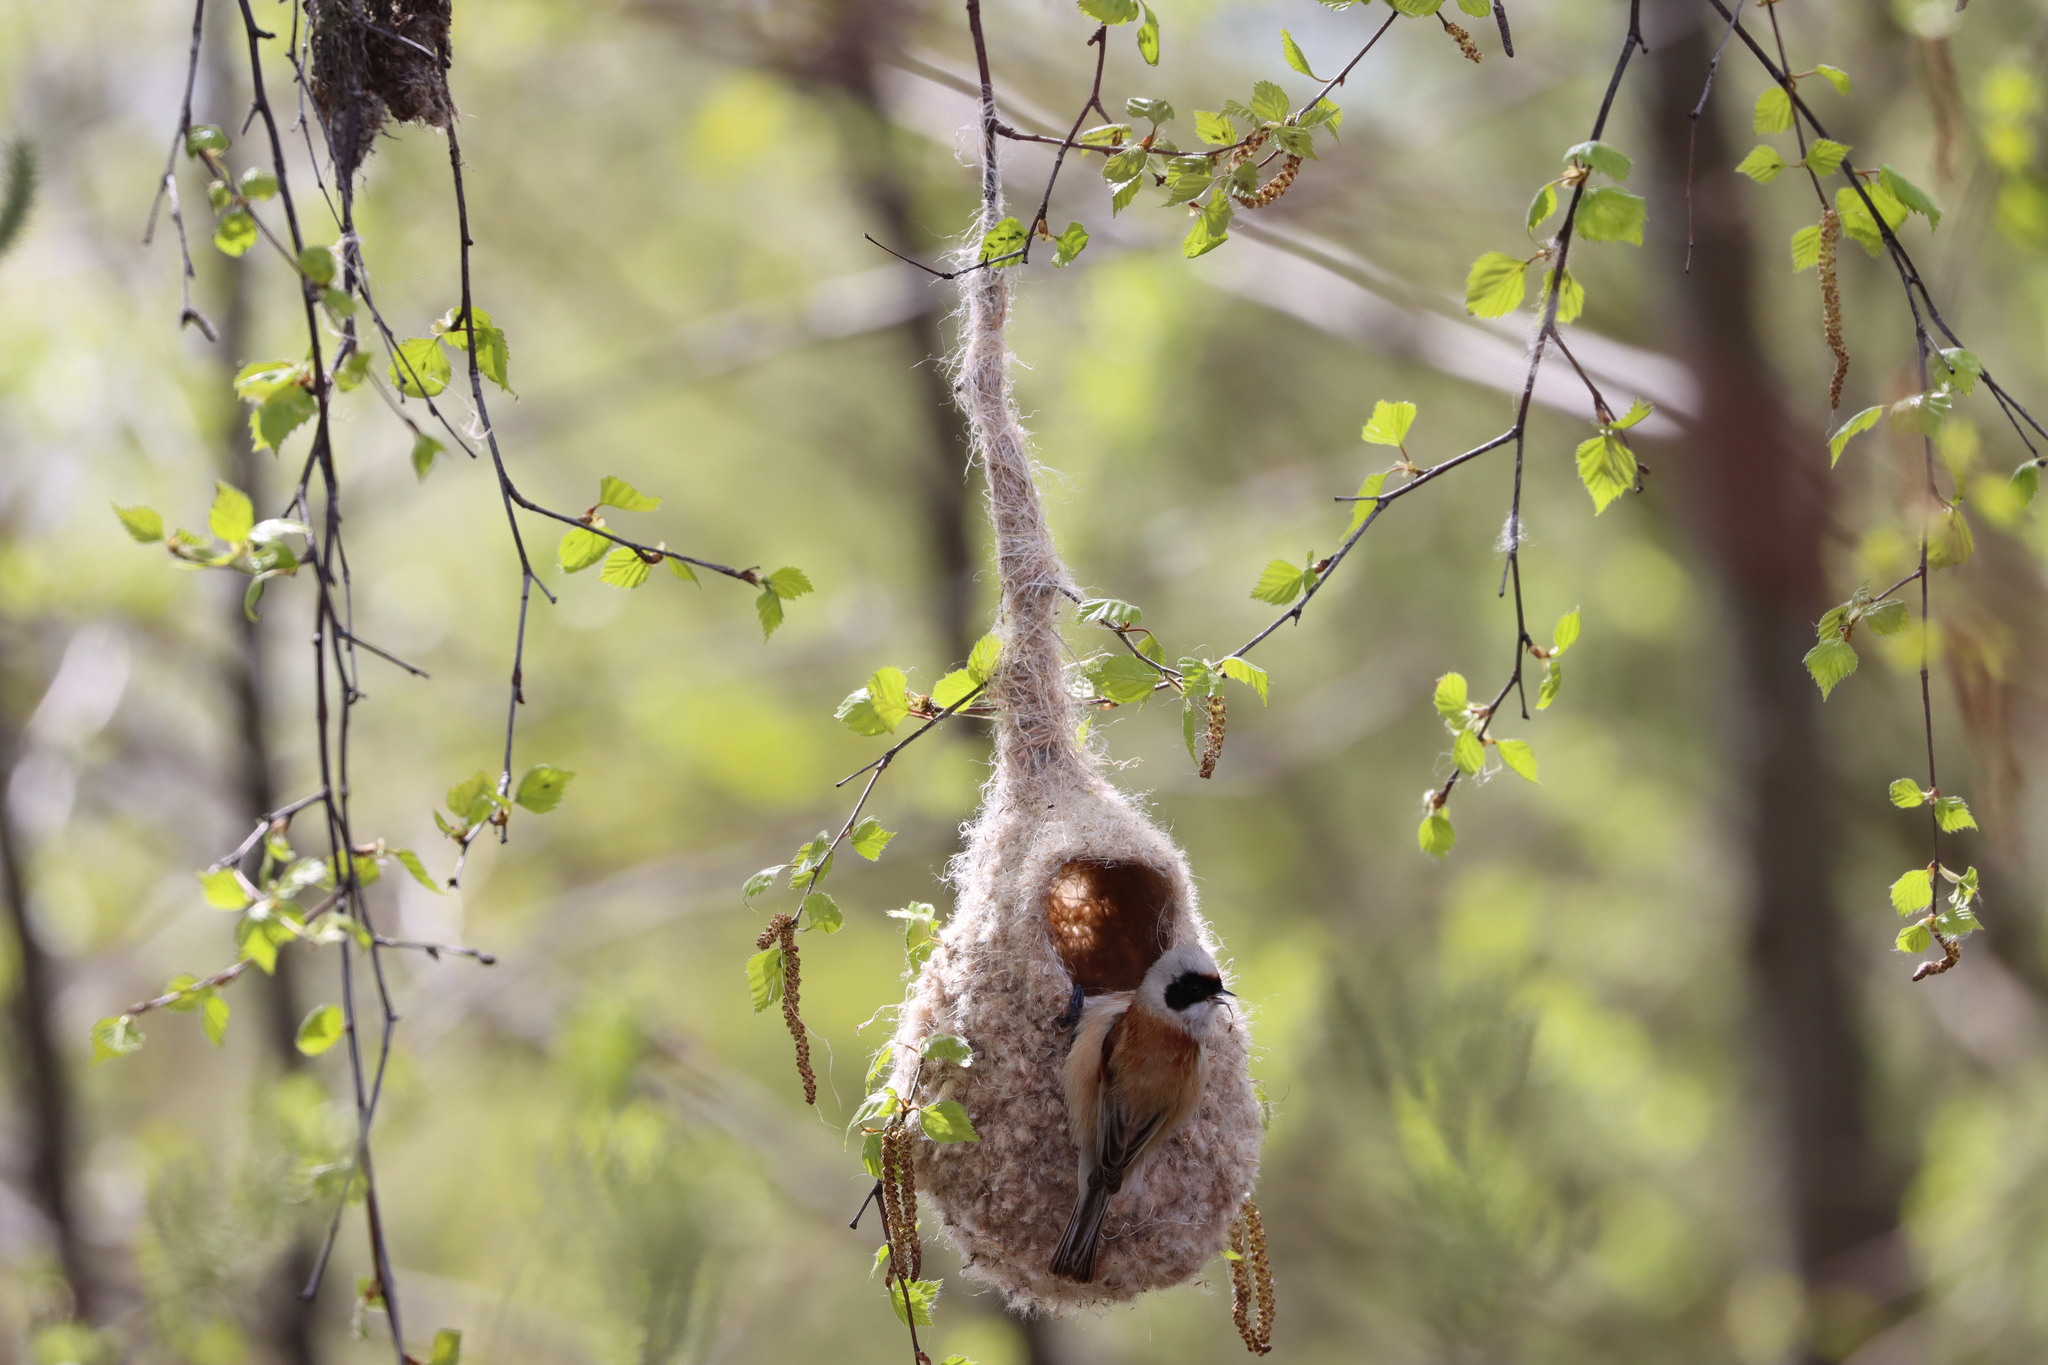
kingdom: Animalia
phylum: Chordata
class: Aves
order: Passeriformes
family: Remizidae
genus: Remiz
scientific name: Remiz pendulinus
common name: Eurasian penduline tit
